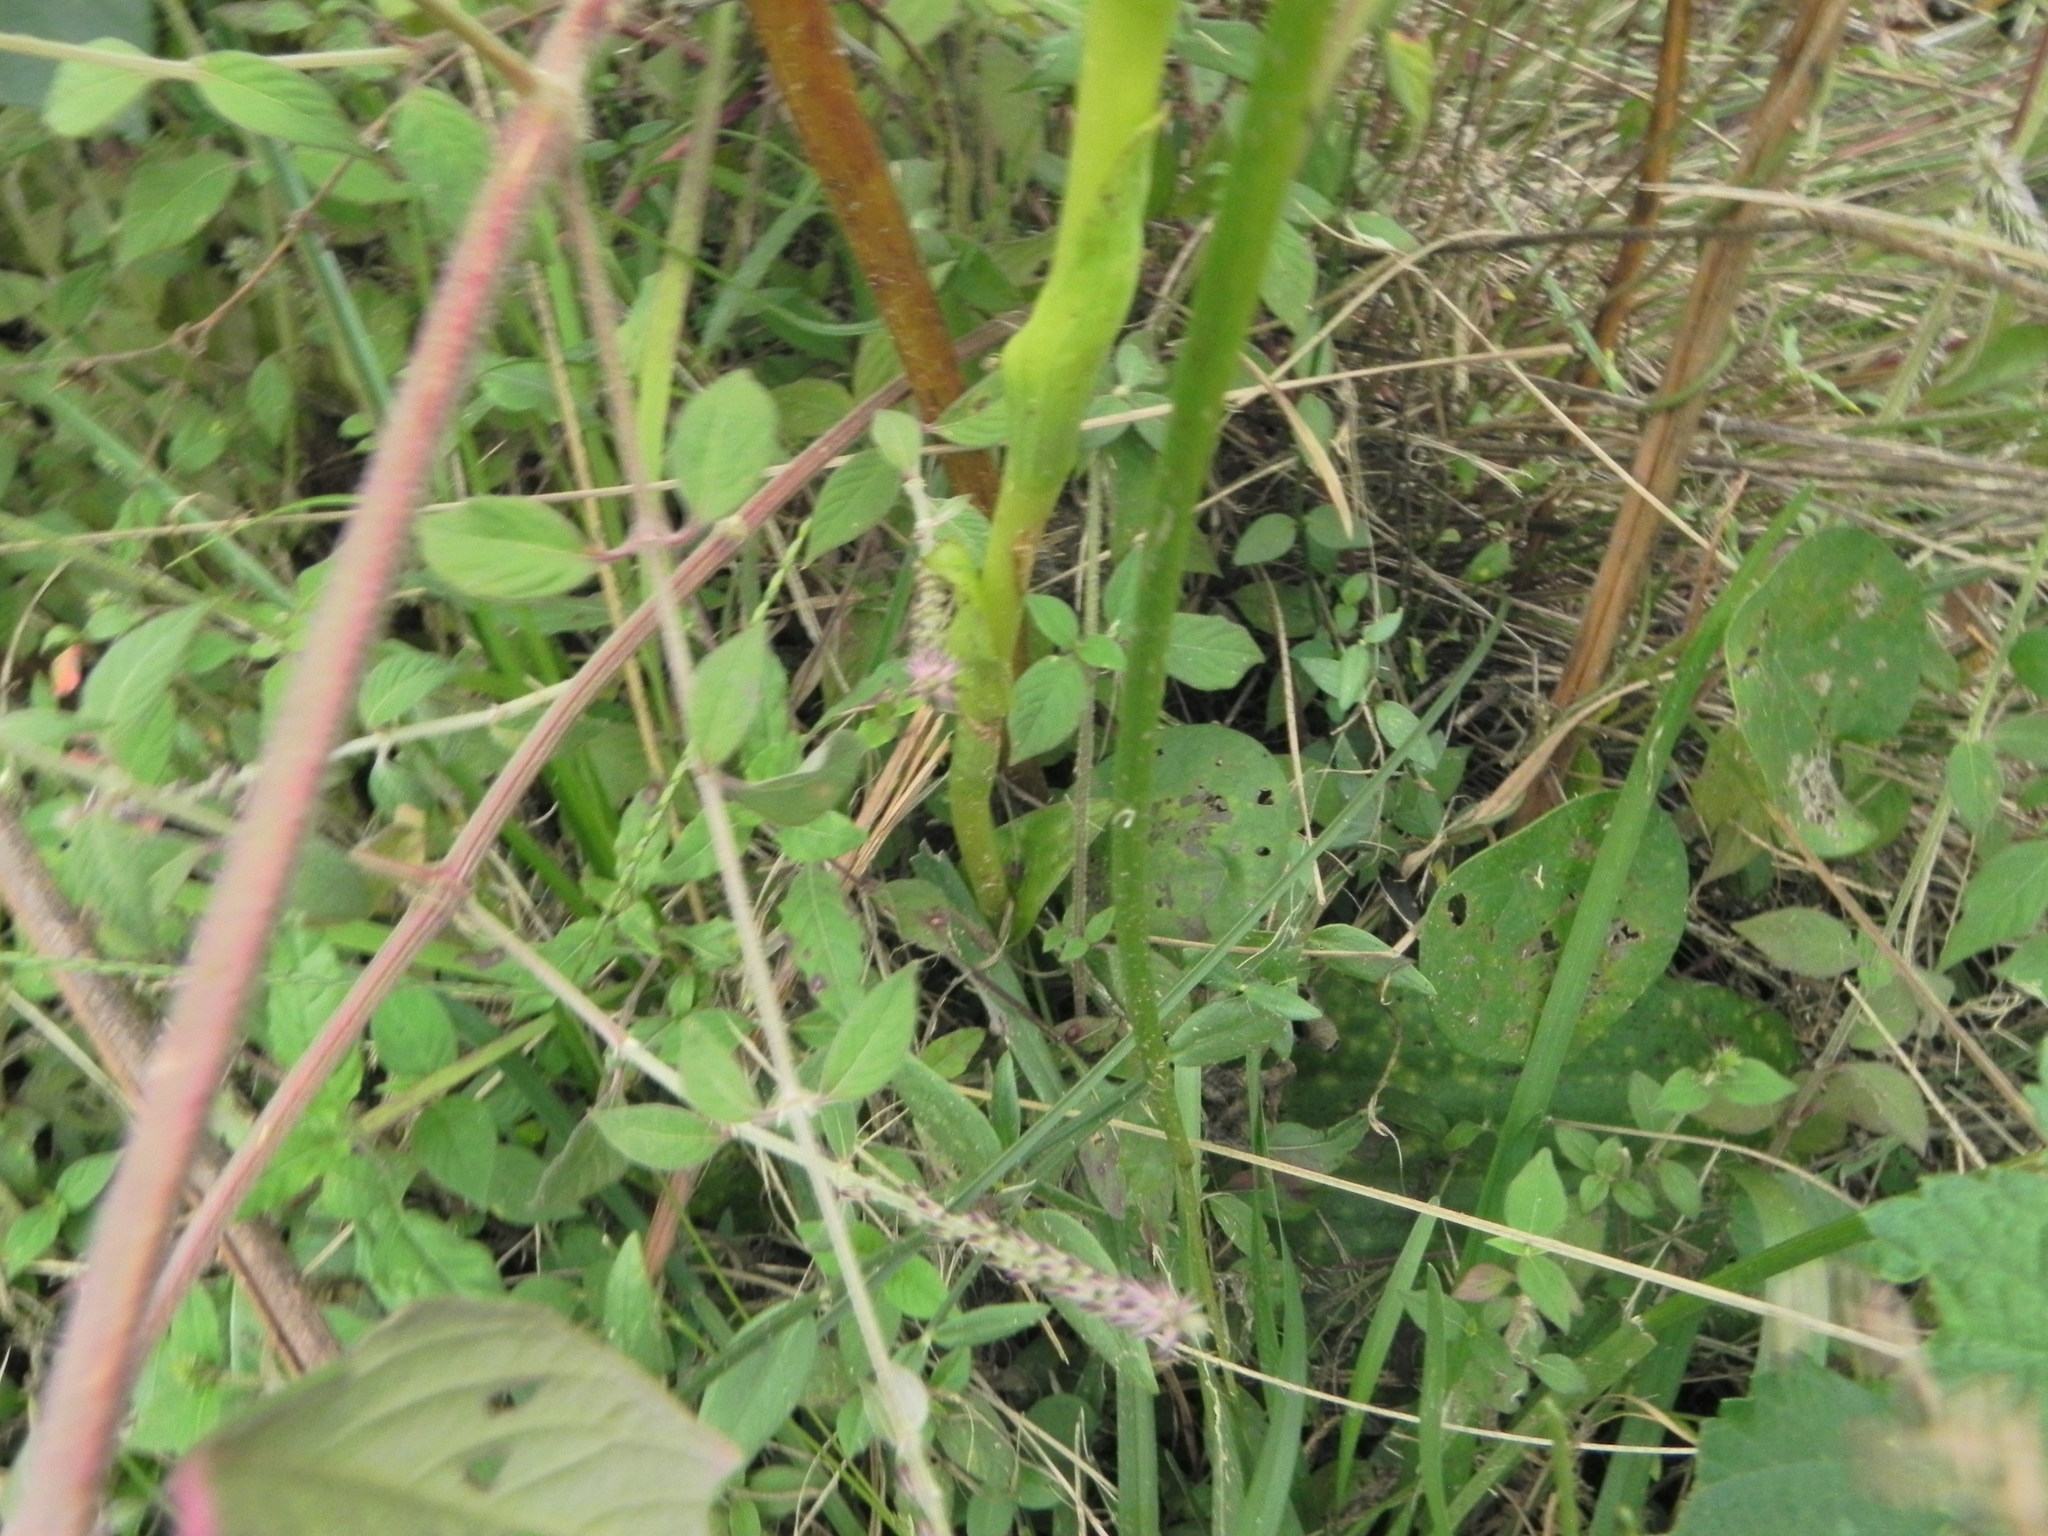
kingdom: Plantae
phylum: Tracheophyta
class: Liliopsida
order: Asparagales
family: Orchidaceae
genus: Satyrium
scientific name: Satyrium macrophyllum
